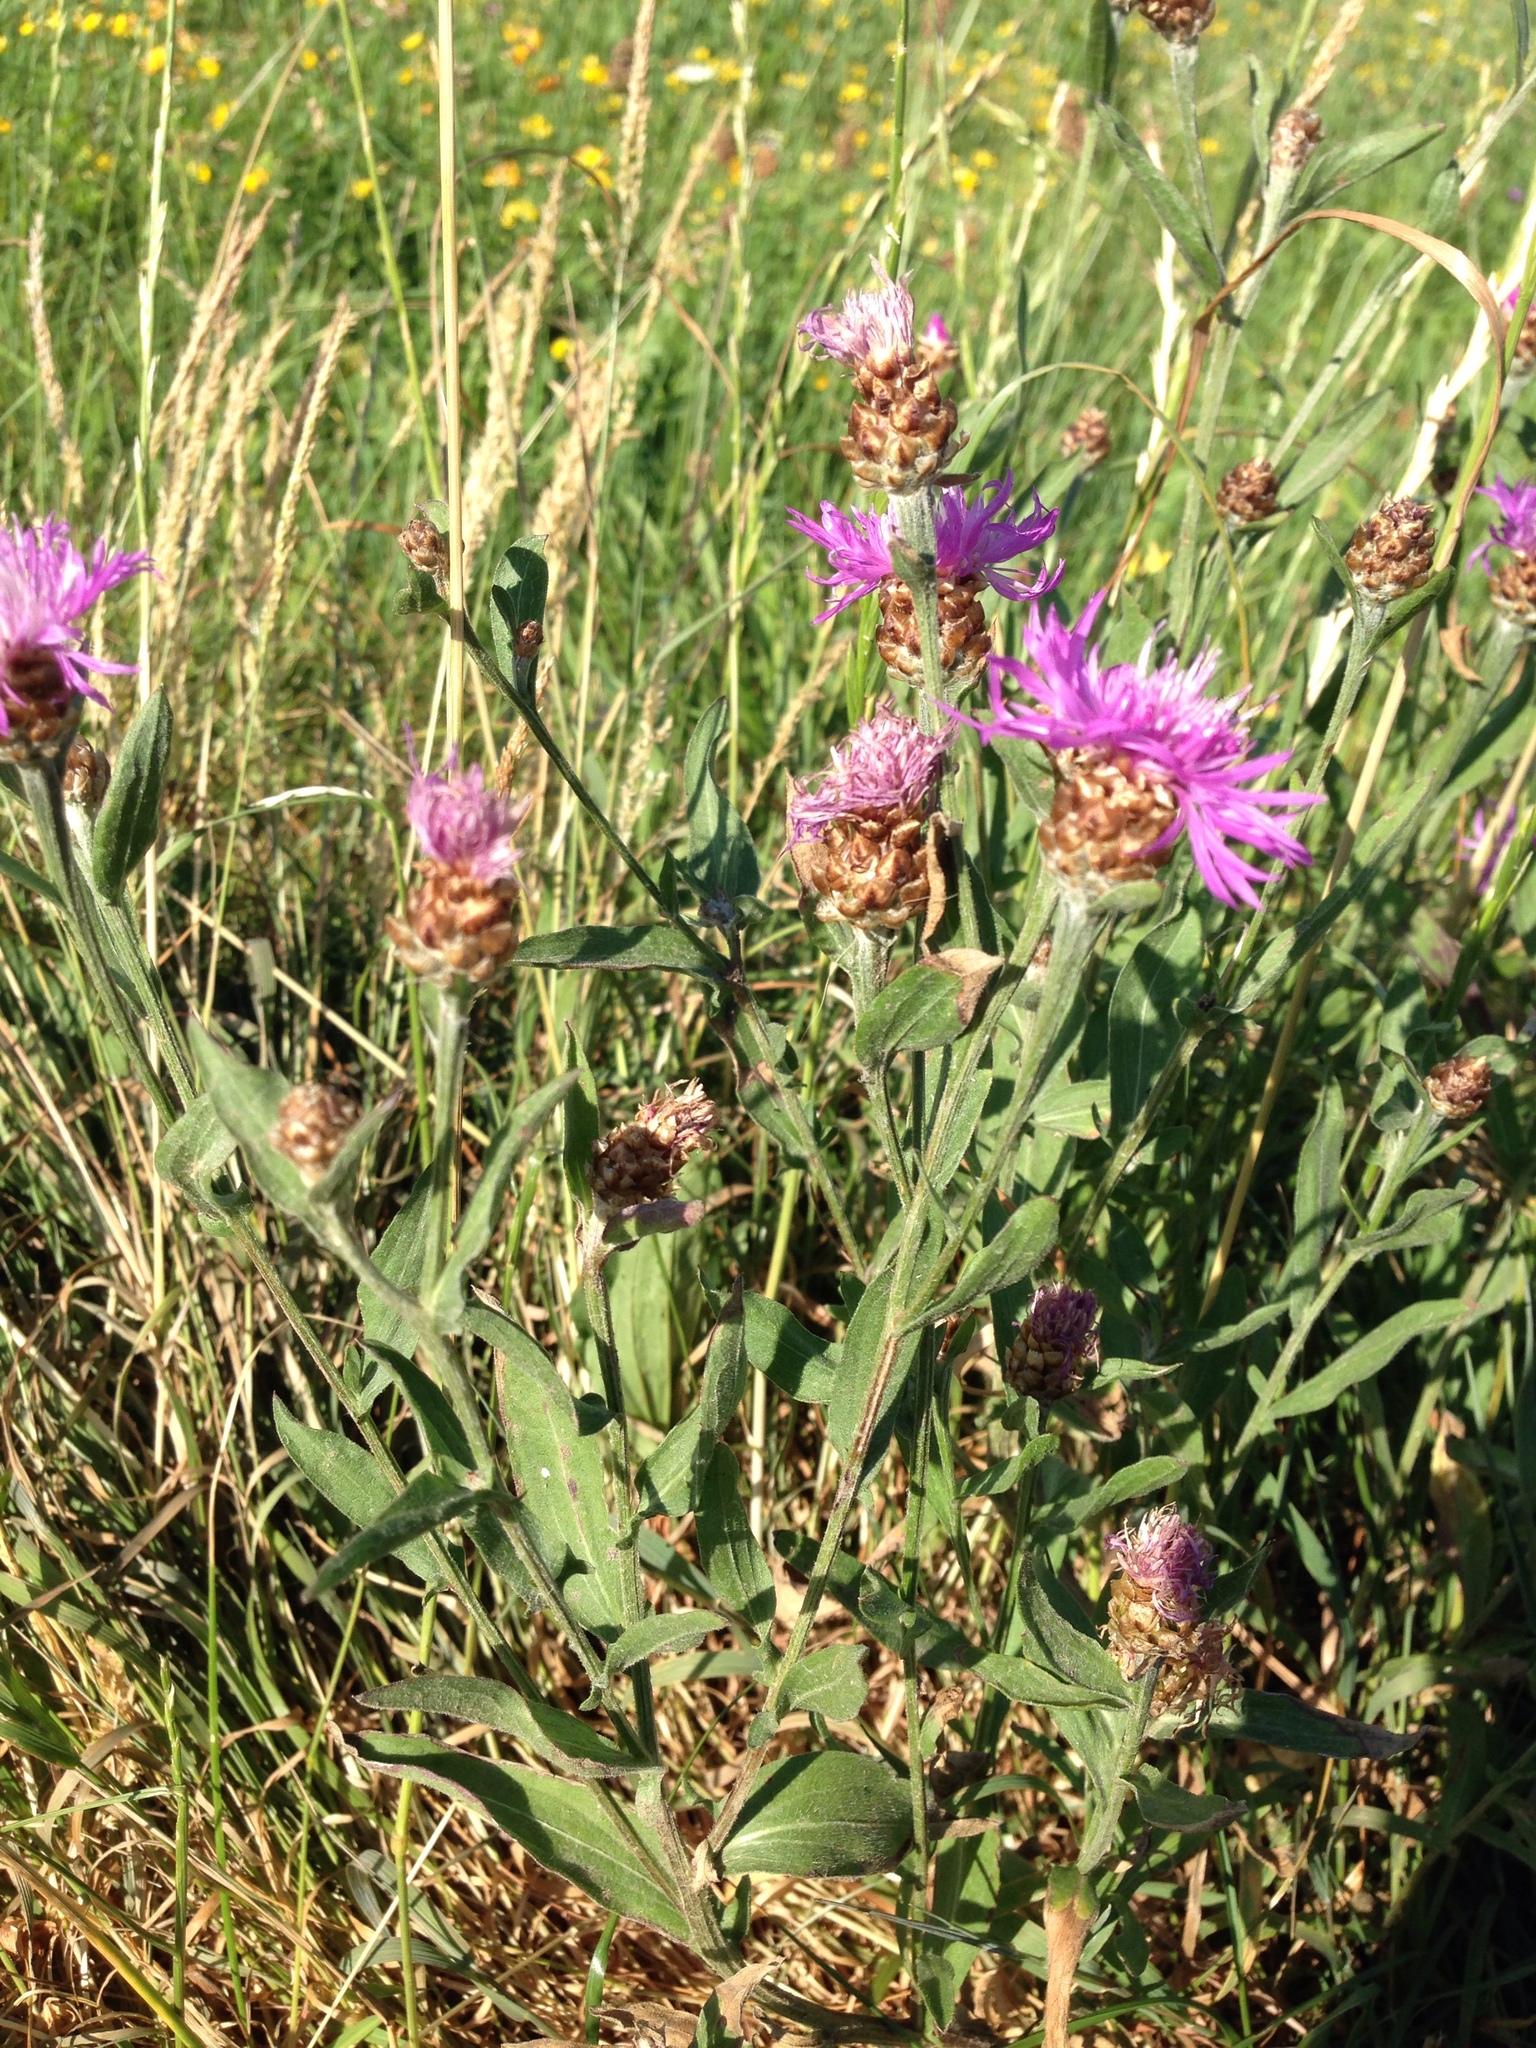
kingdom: Plantae
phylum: Tracheophyta
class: Magnoliopsida
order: Asterales
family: Asteraceae
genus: Centaurea
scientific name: Centaurea jacea
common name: Brown knapweed
